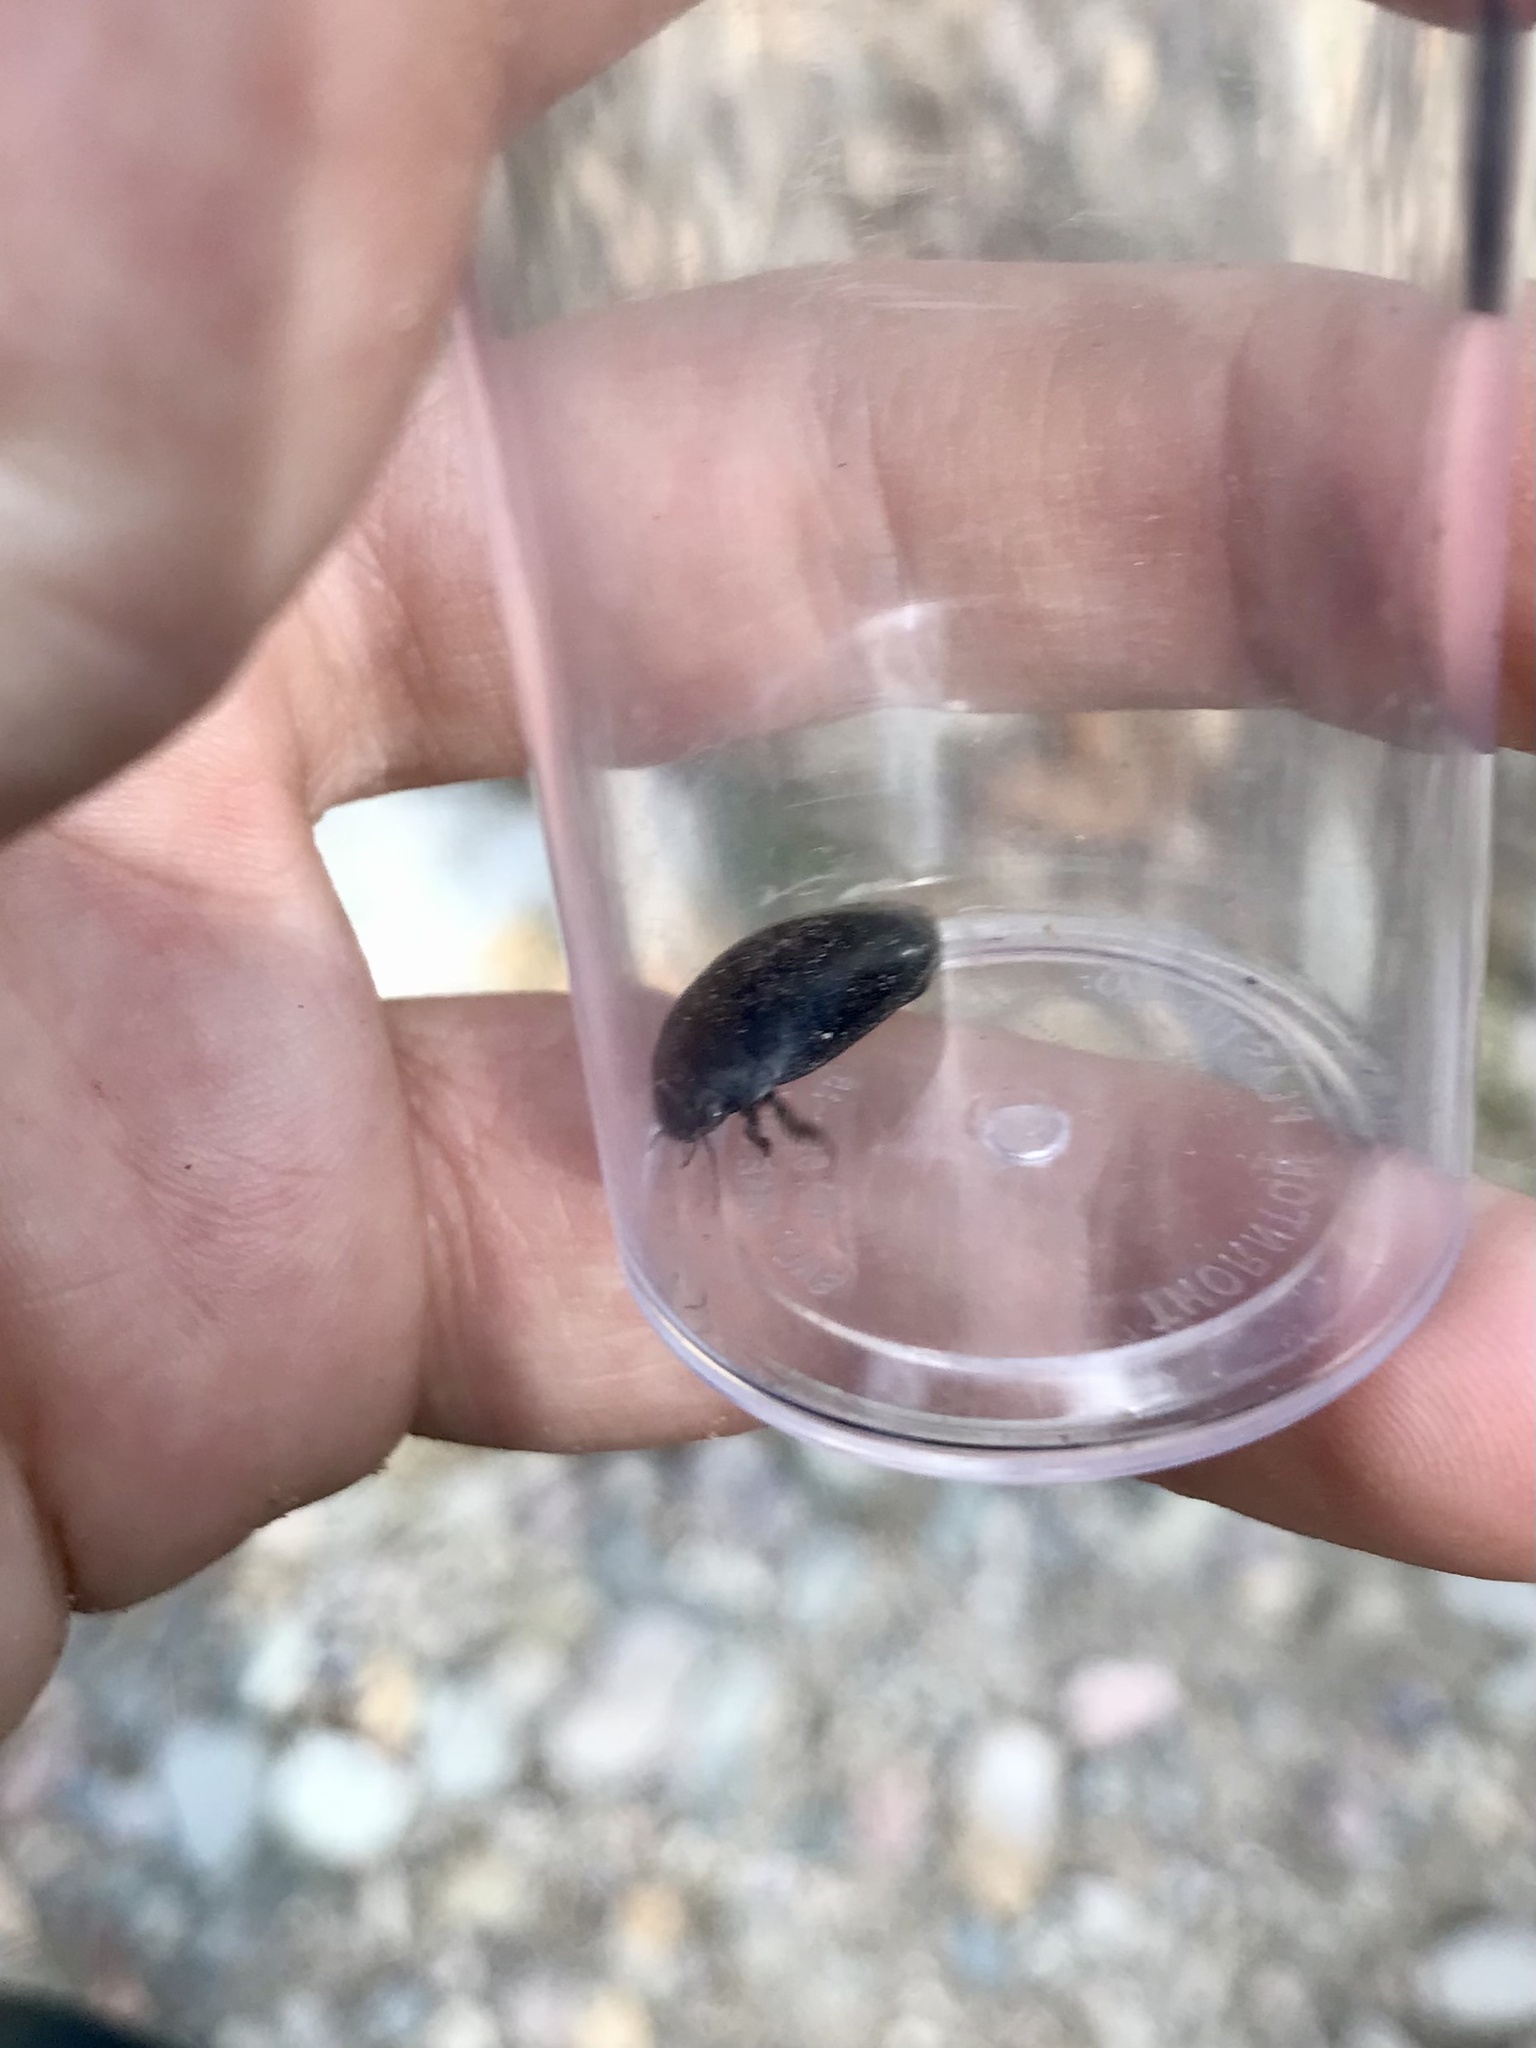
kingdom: Animalia
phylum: Arthropoda
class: Insecta
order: Coleoptera
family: Dytiscidae
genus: Rhantus
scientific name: Rhantus atricolor
